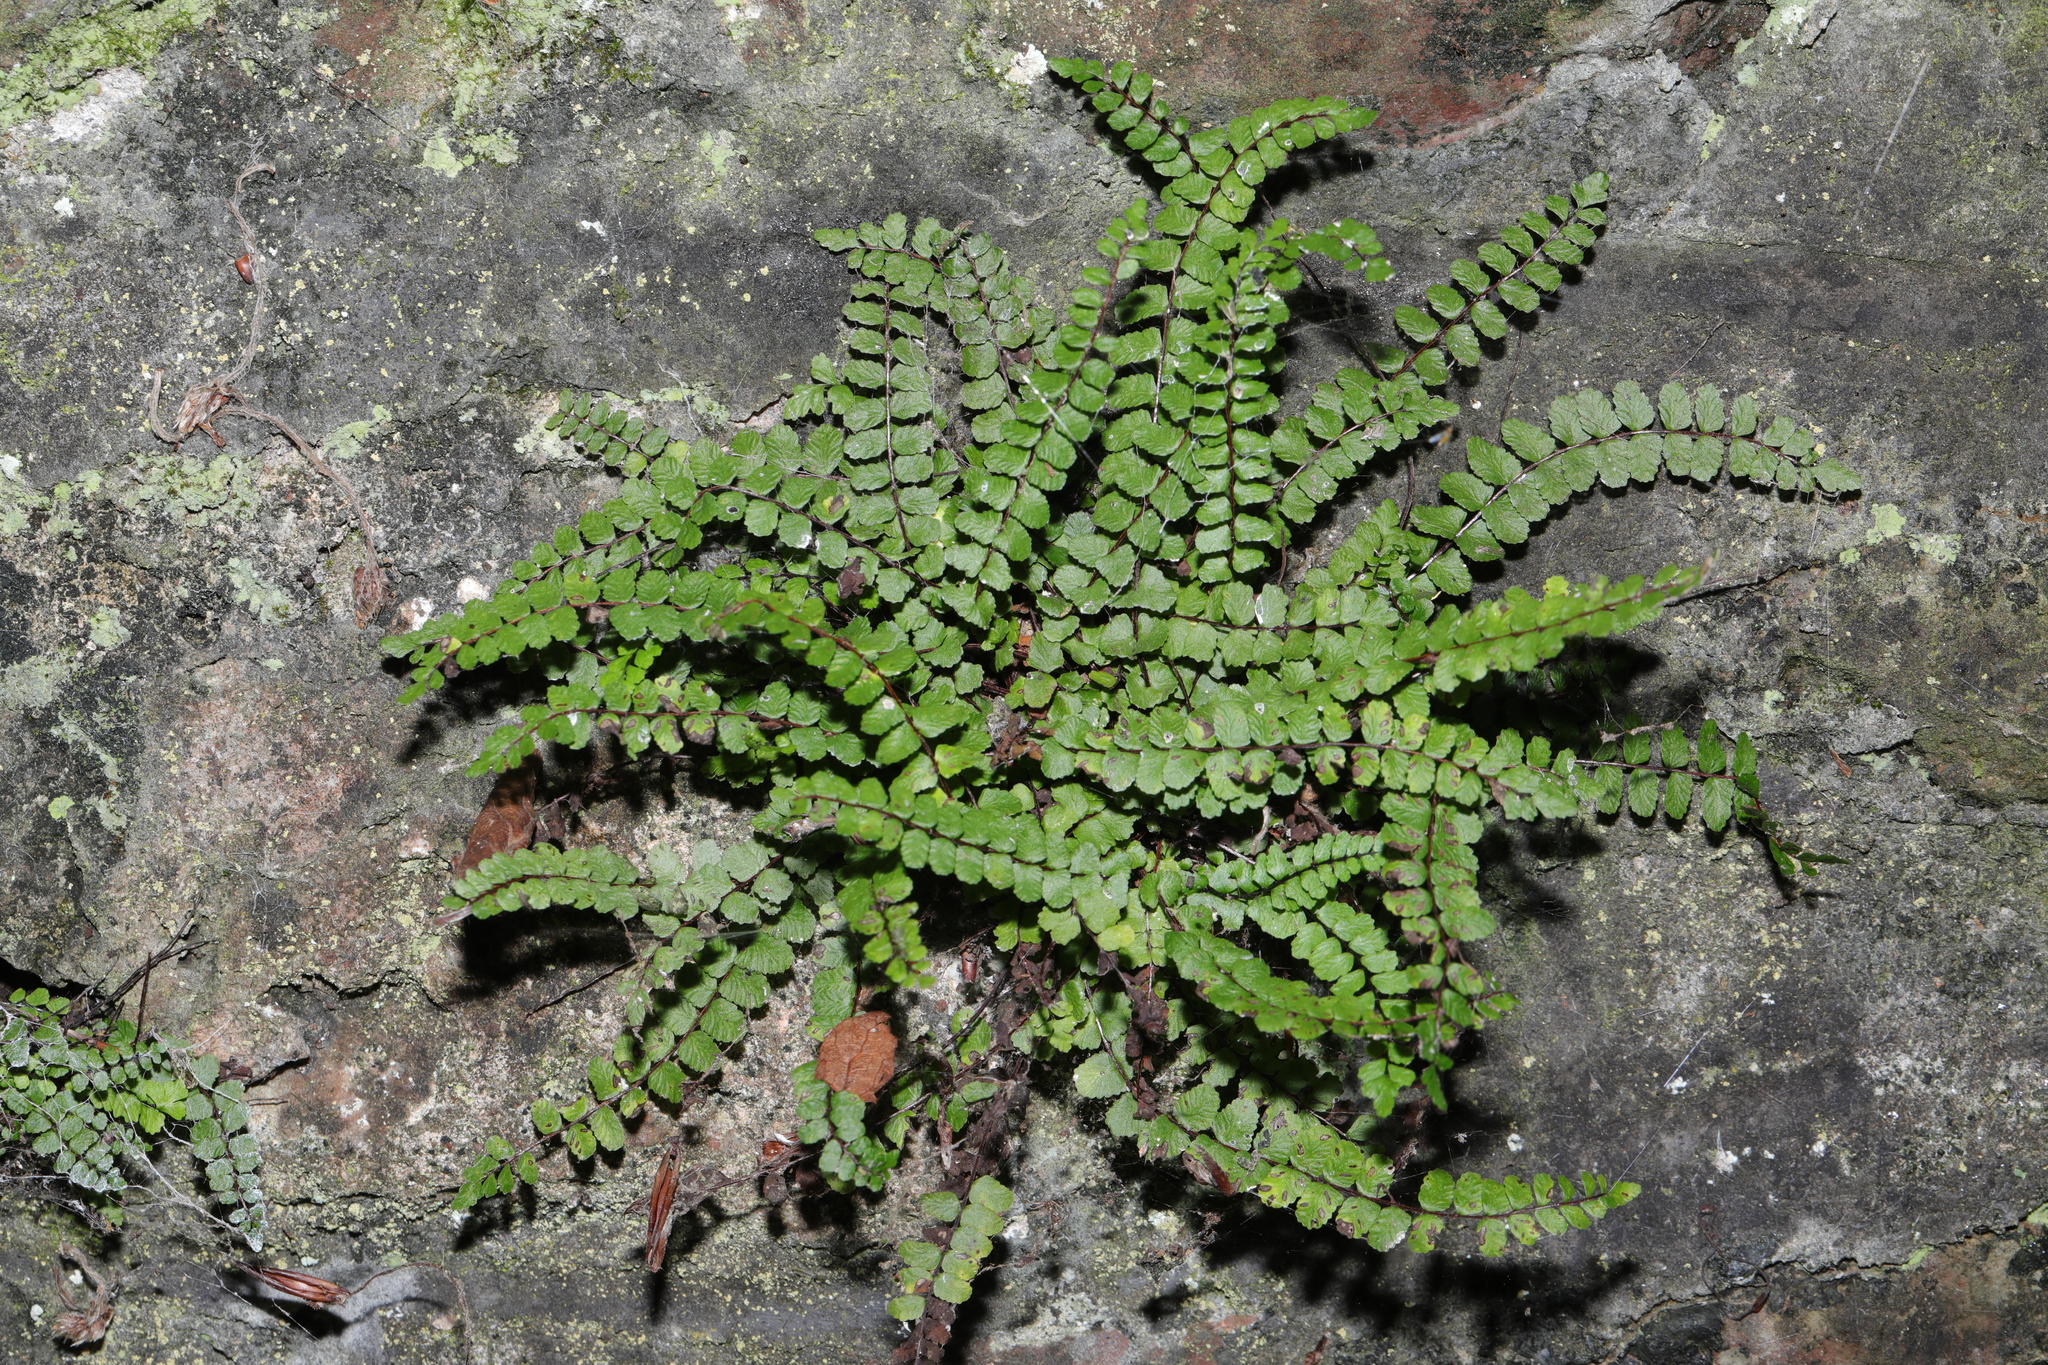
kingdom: Plantae
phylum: Tracheophyta
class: Polypodiopsida
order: Polypodiales
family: Aspleniaceae
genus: Asplenium
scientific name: Asplenium trichomanes
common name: Maidenhair spleenwort
